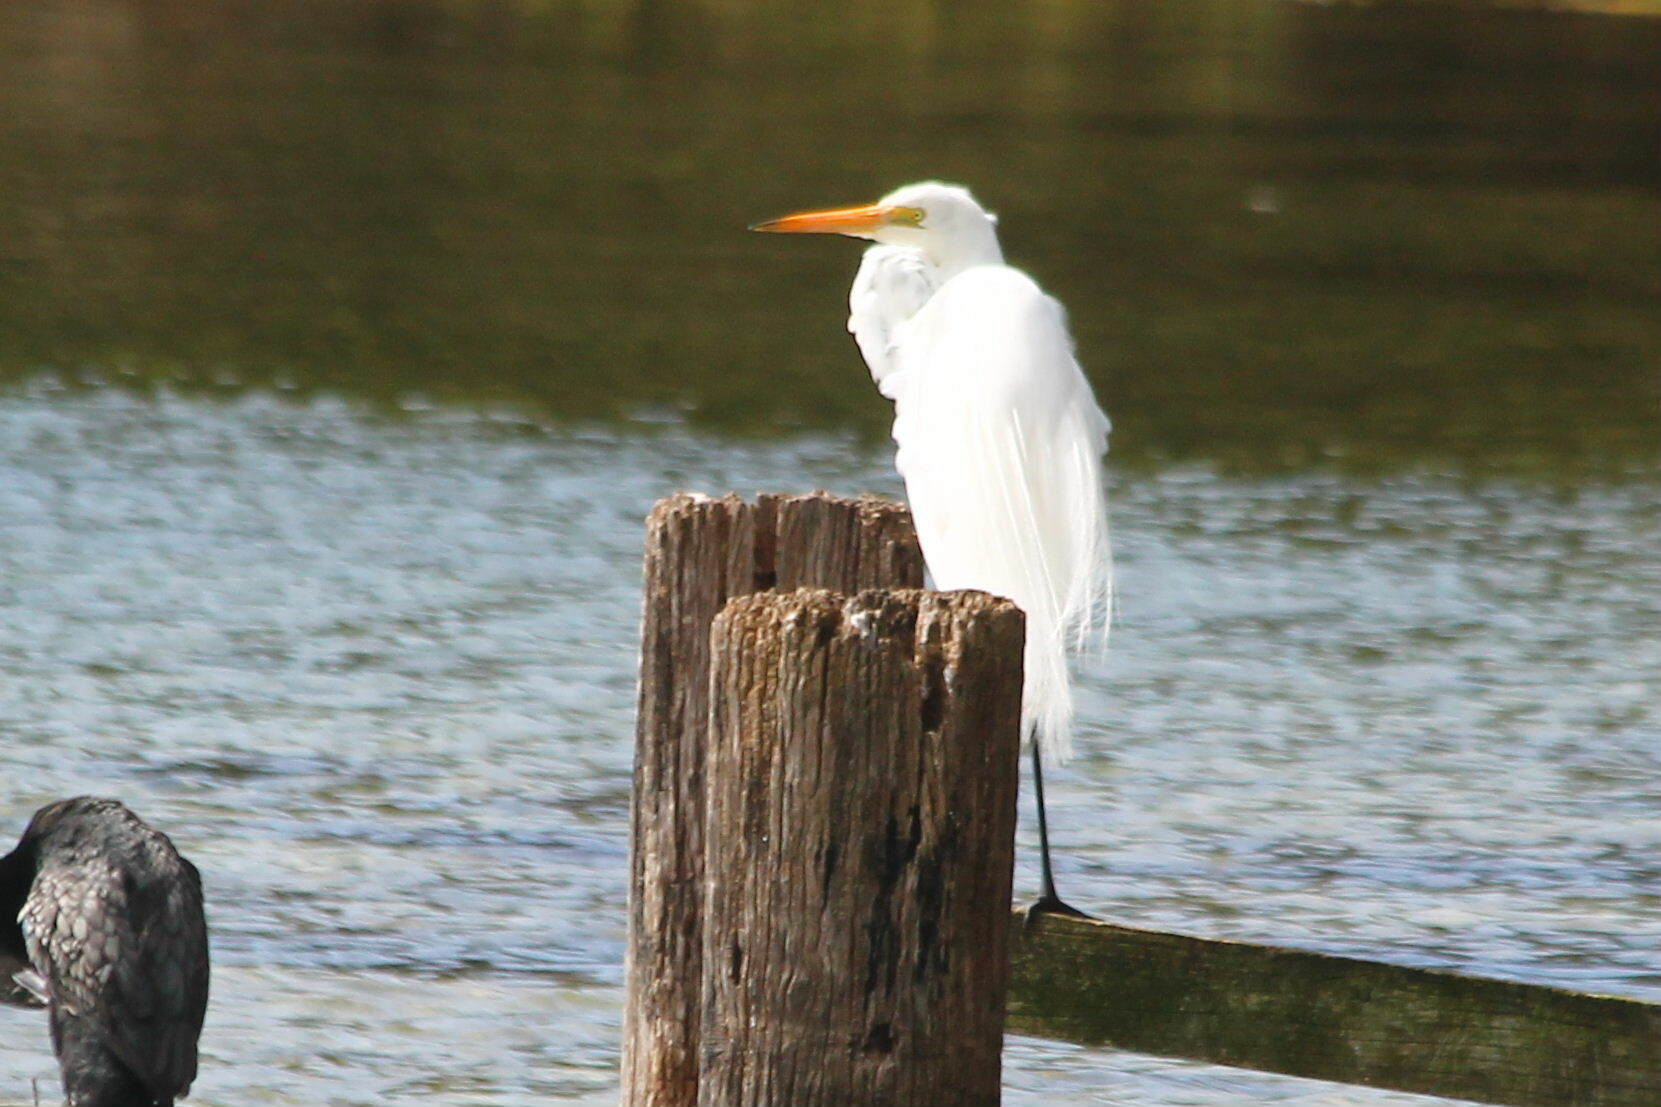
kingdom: Animalia
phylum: Chordata
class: Aves
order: Pelecaniformes
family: Ardeidae
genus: Ardea
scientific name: Ardea modesta
